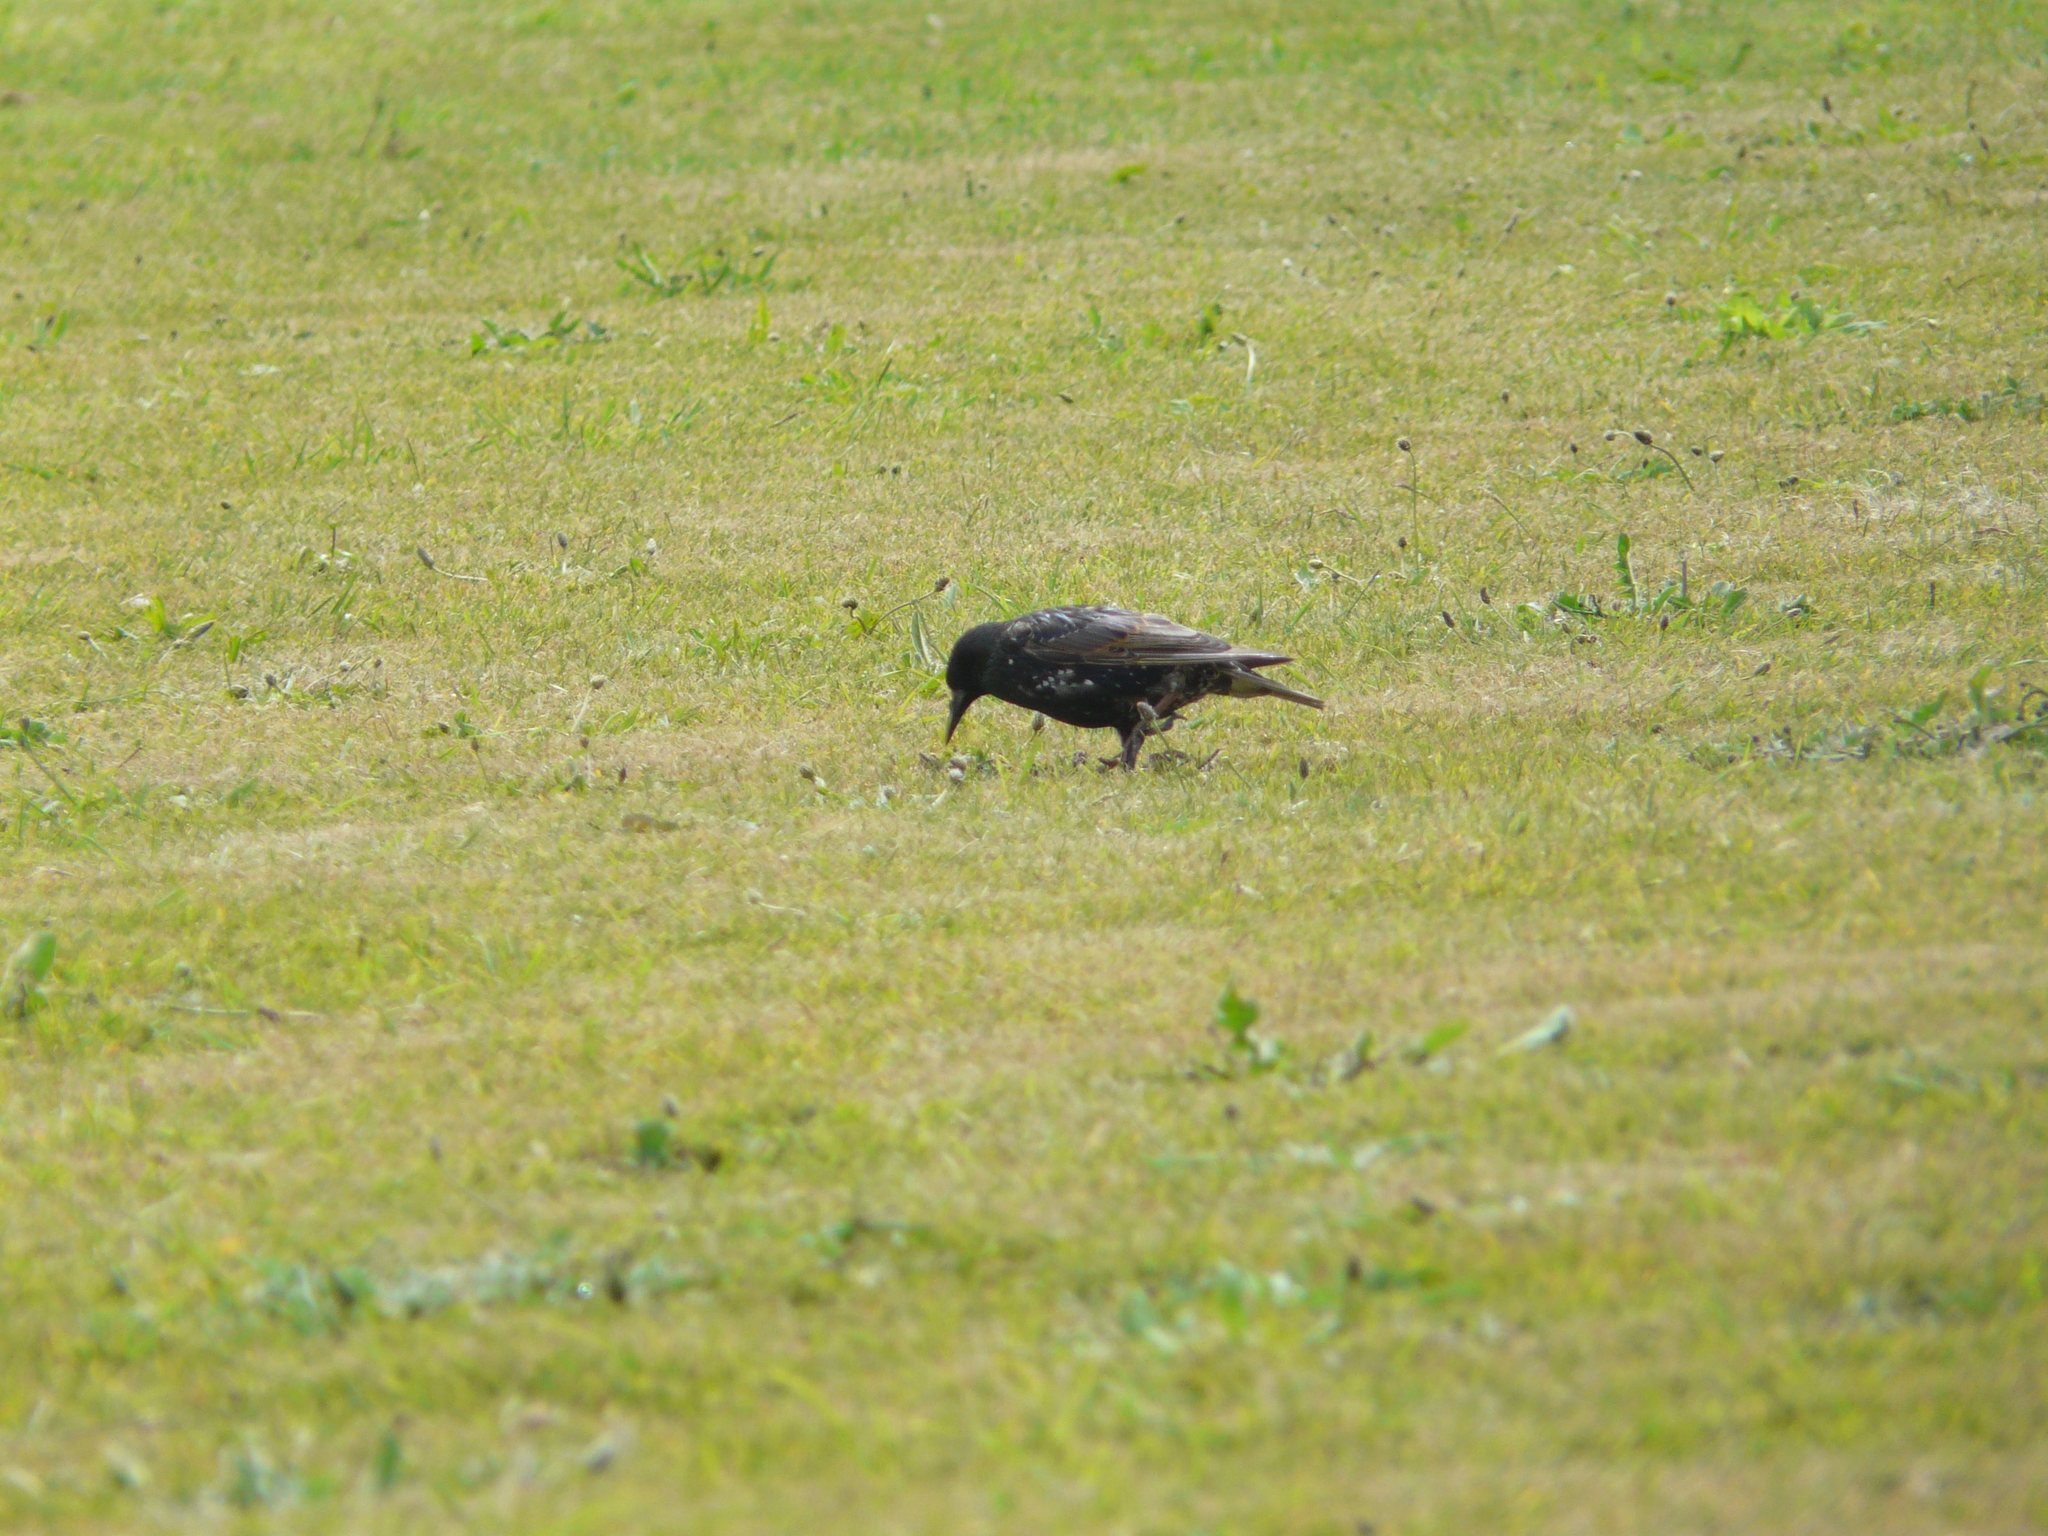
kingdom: Animalia
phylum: Chordata
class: Aves
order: Passeriformes
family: Sturnidae
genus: Sturnus
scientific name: Sturnus vulgaris
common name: Common starling
